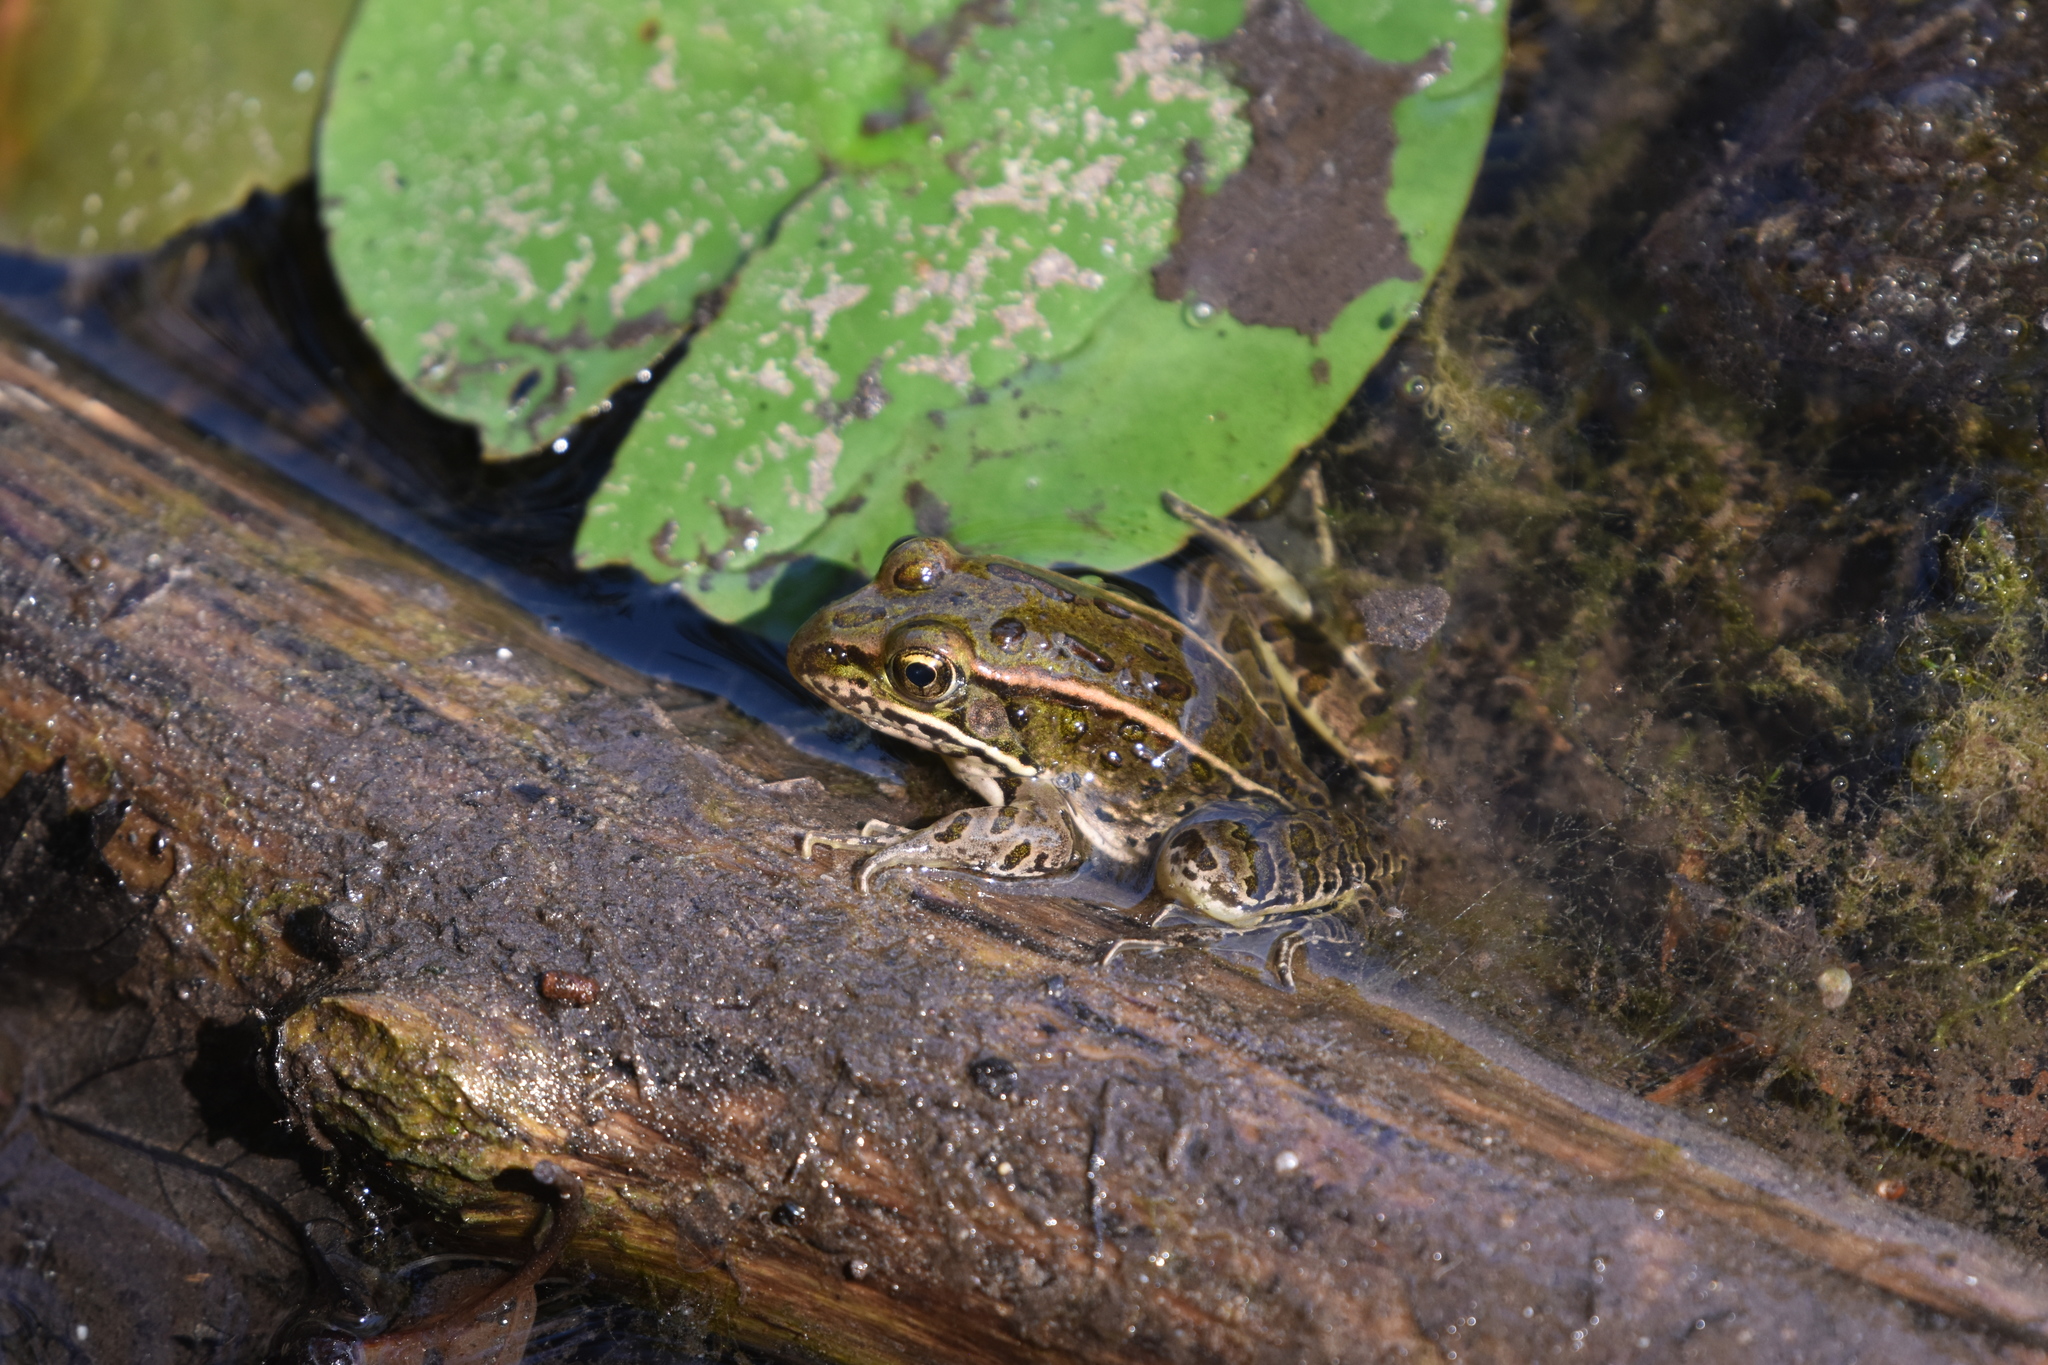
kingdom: Animalia
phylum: Chordata
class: Amphibia
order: Anura
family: Ranidae
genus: Lithobates
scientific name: Lithobates pipiens
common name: Northern leopard frog
